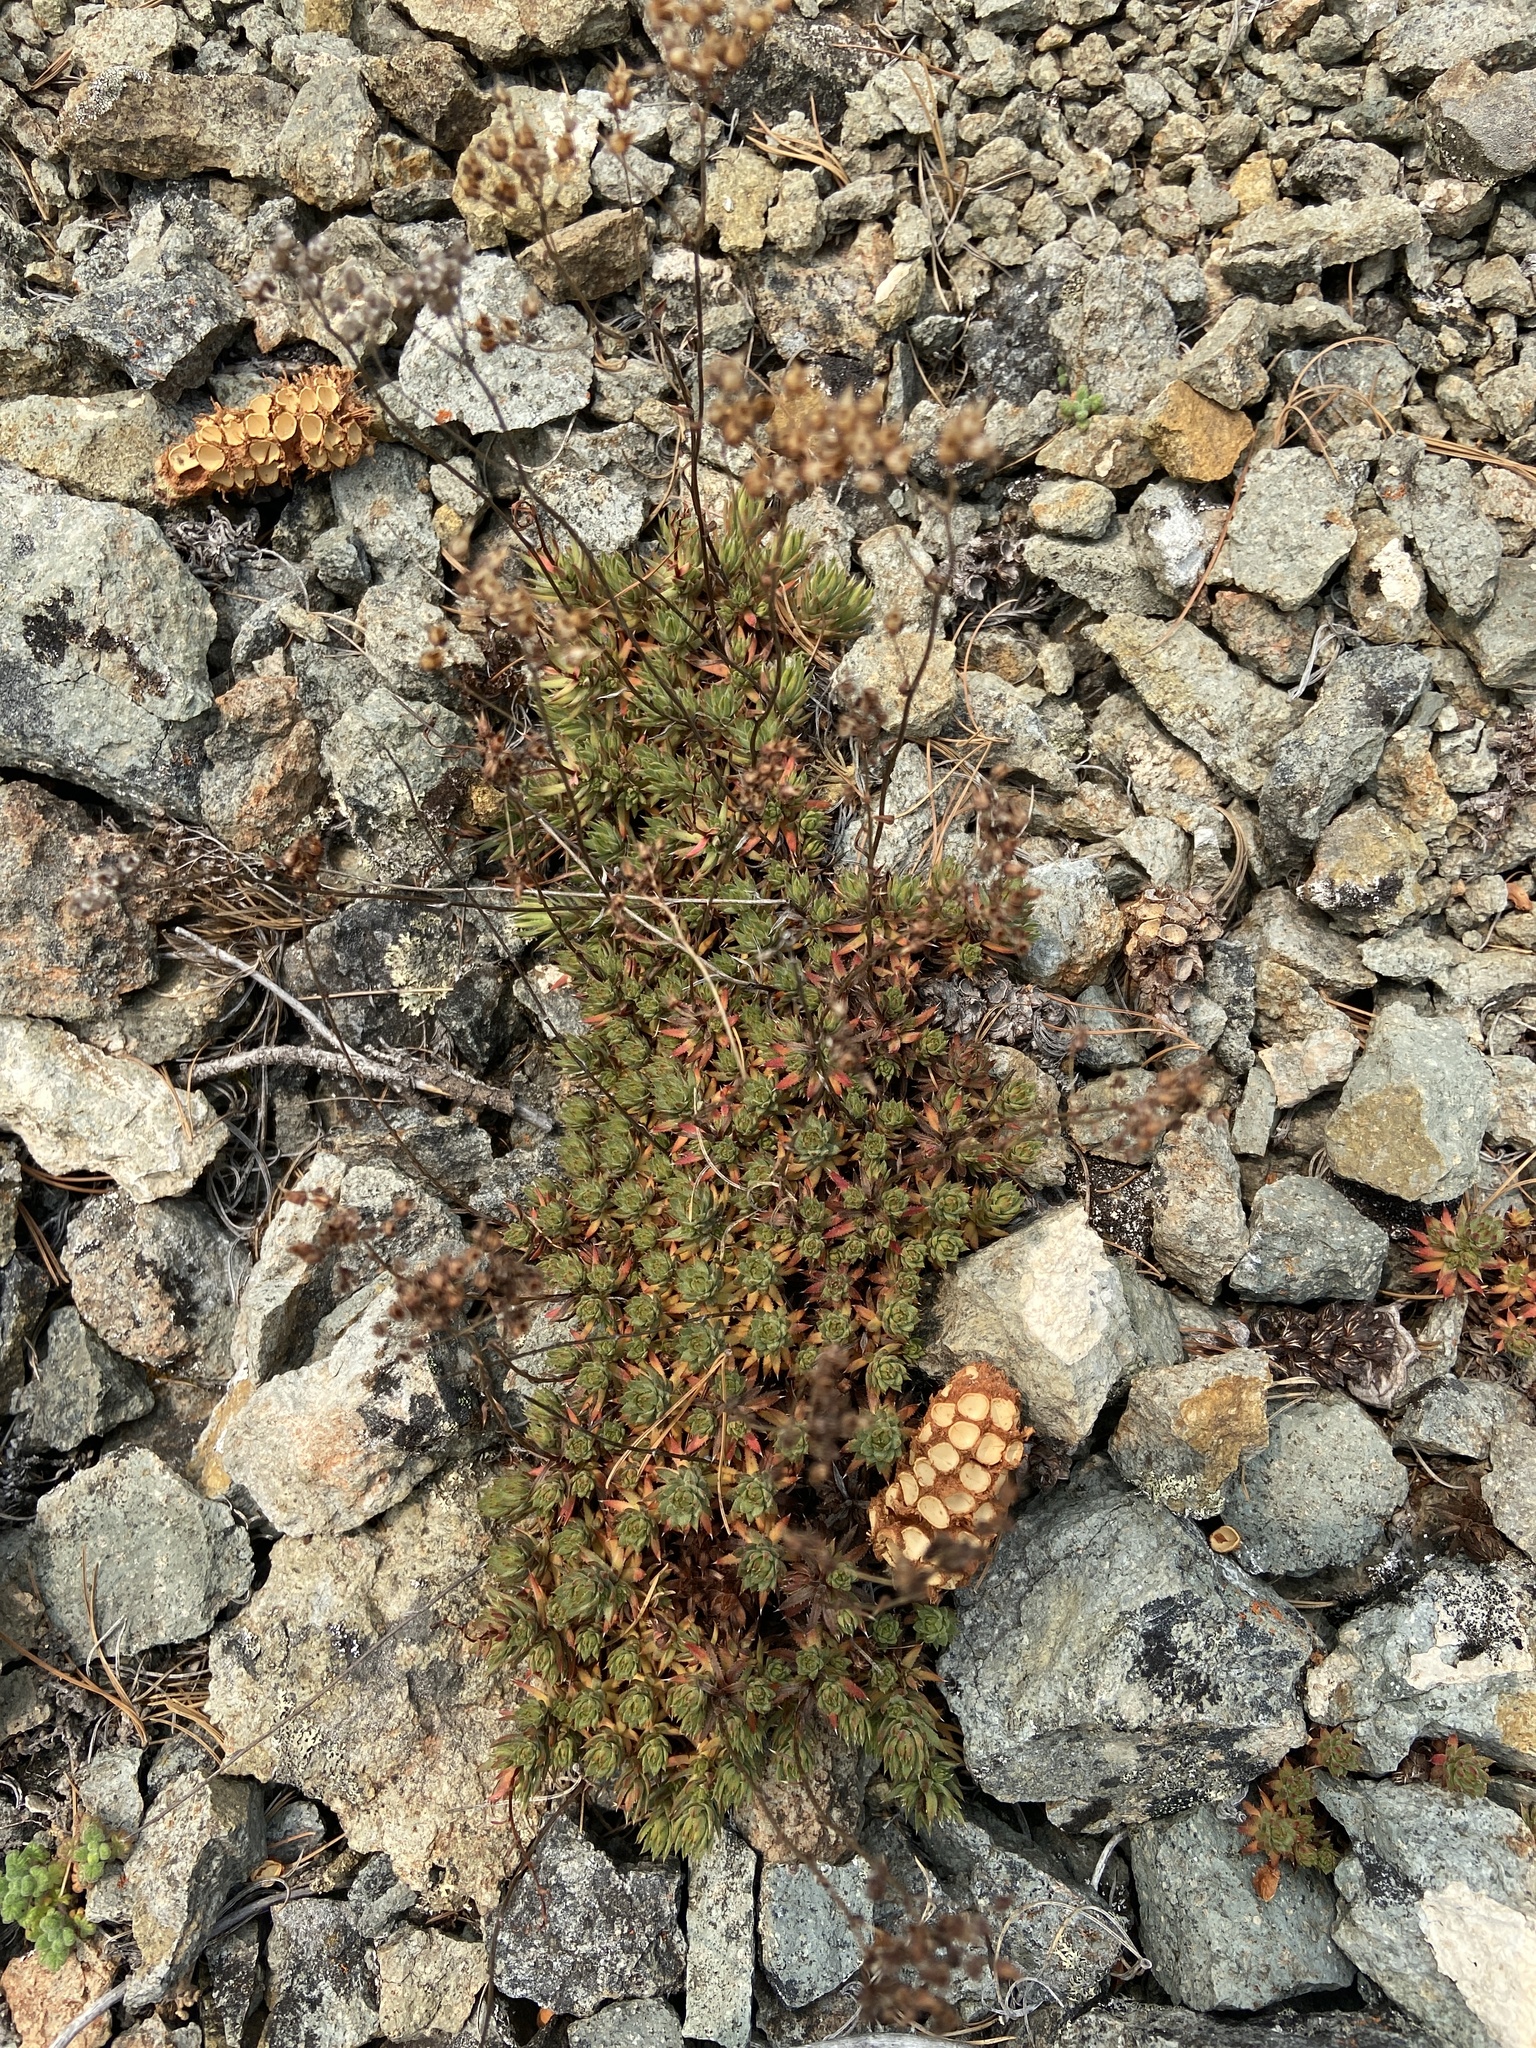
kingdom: Plantae
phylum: Tracheophyta
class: Magnoliopsida
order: Saxifragales
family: Saxifragaceae
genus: Saxifraga
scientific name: Saxifraga omolojensis
